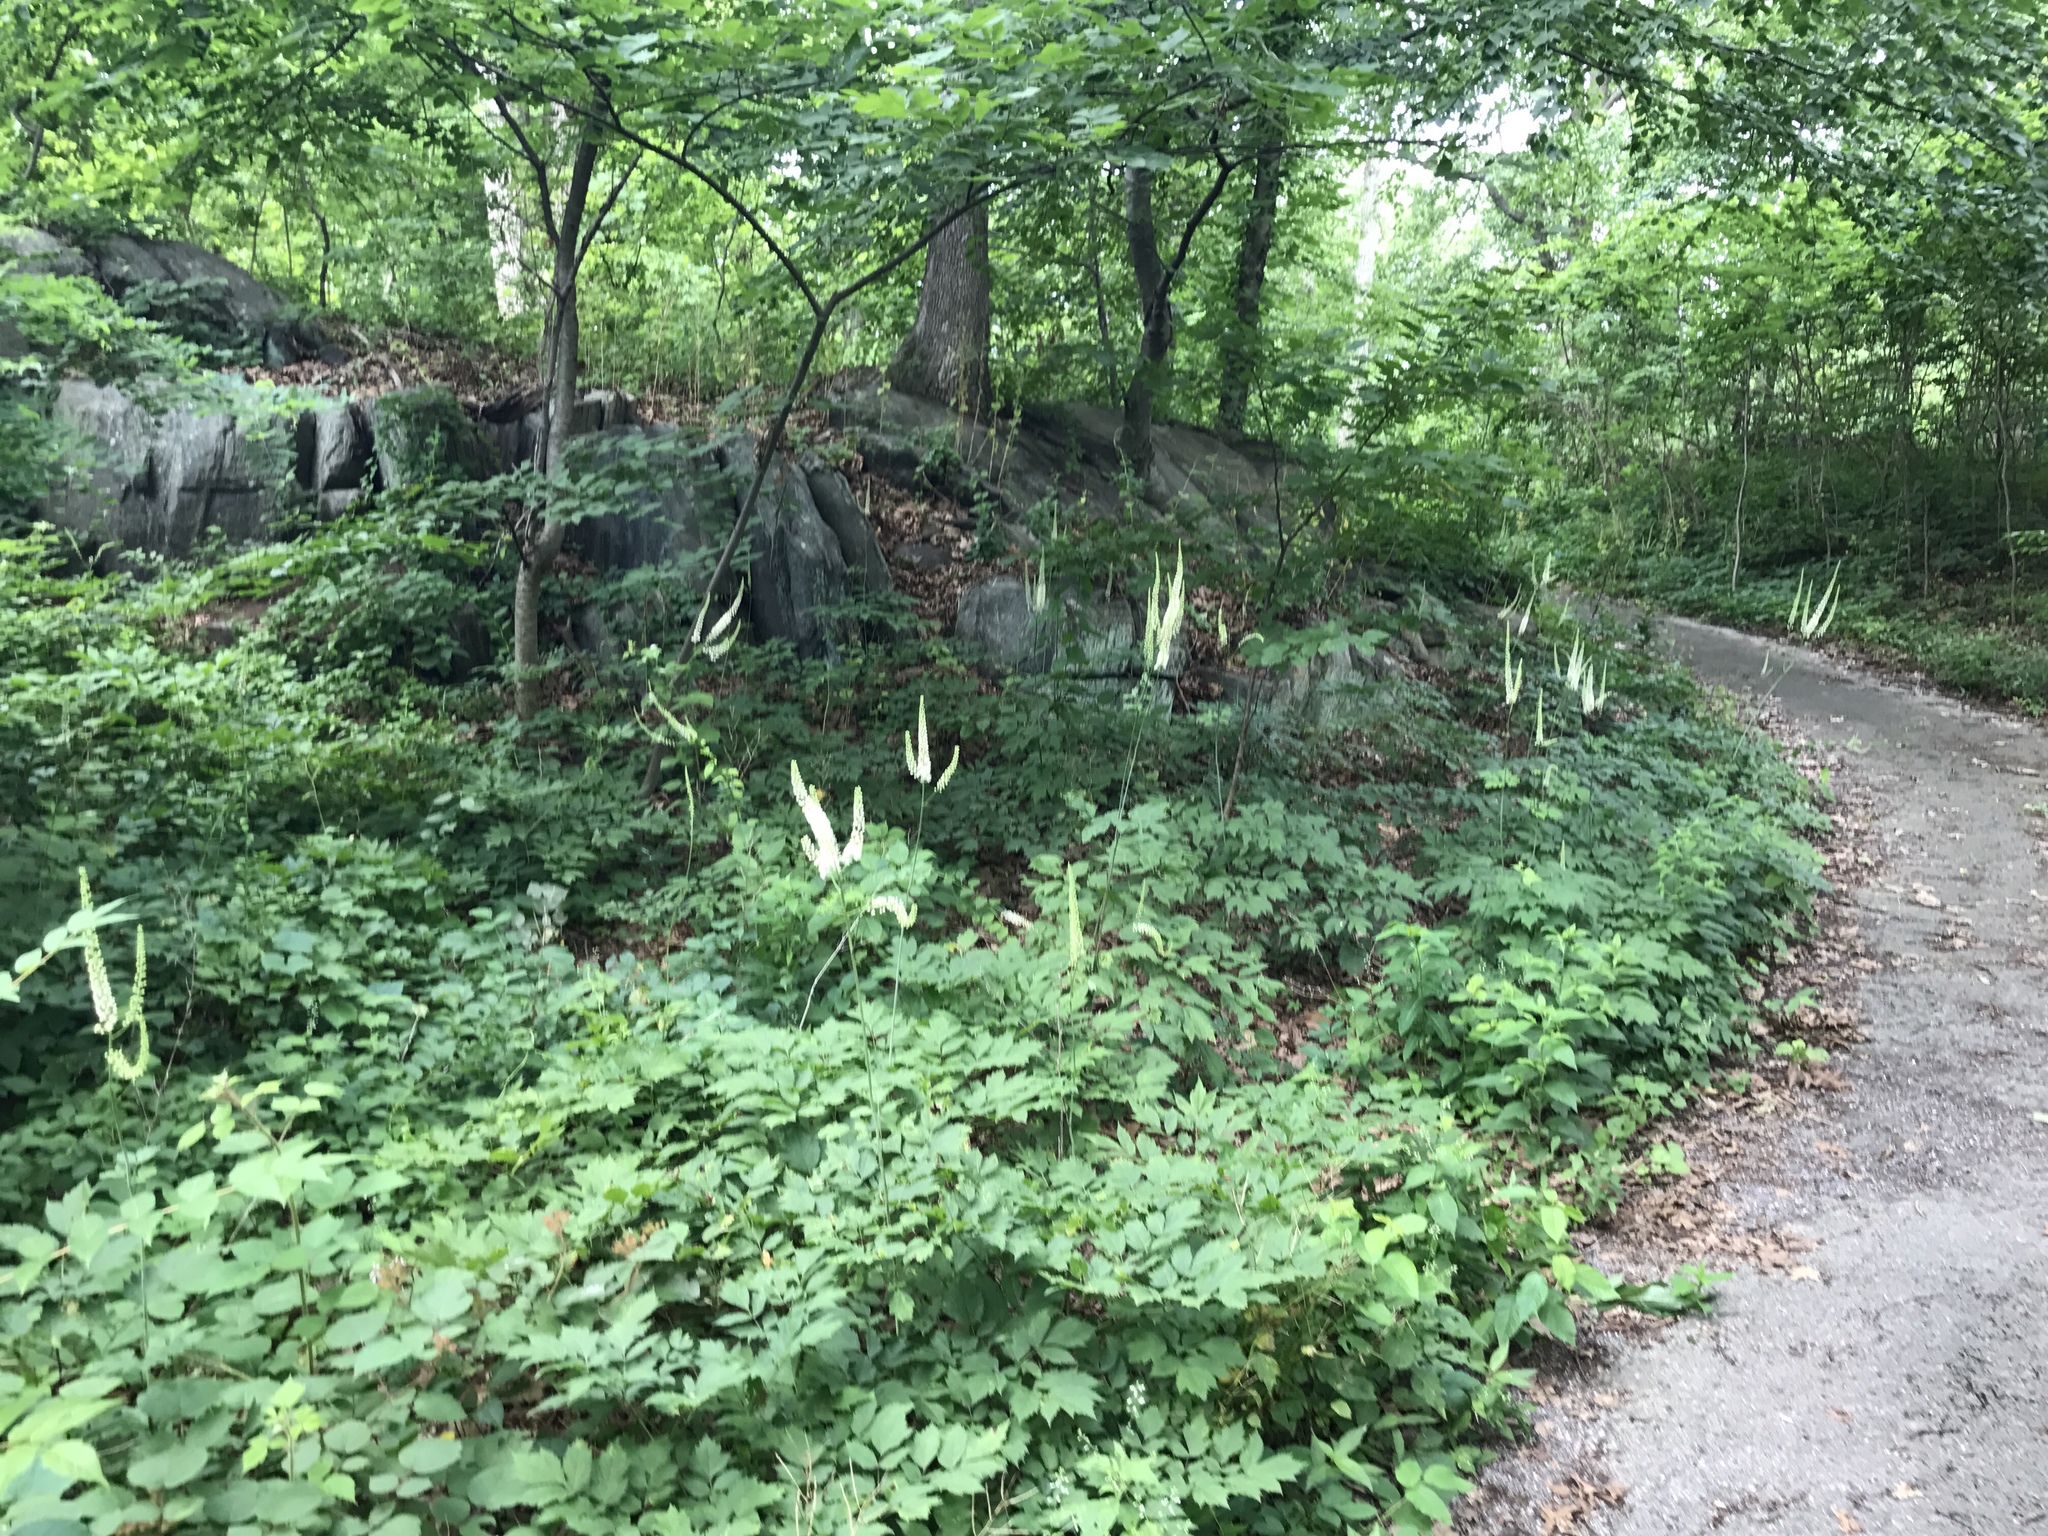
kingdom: Plantae
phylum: Tracheophyta
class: Magnoliopsida
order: Ranunculales
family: Ranunculaceae
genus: Actaea
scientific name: Actaea racemosa
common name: Black cohosh
